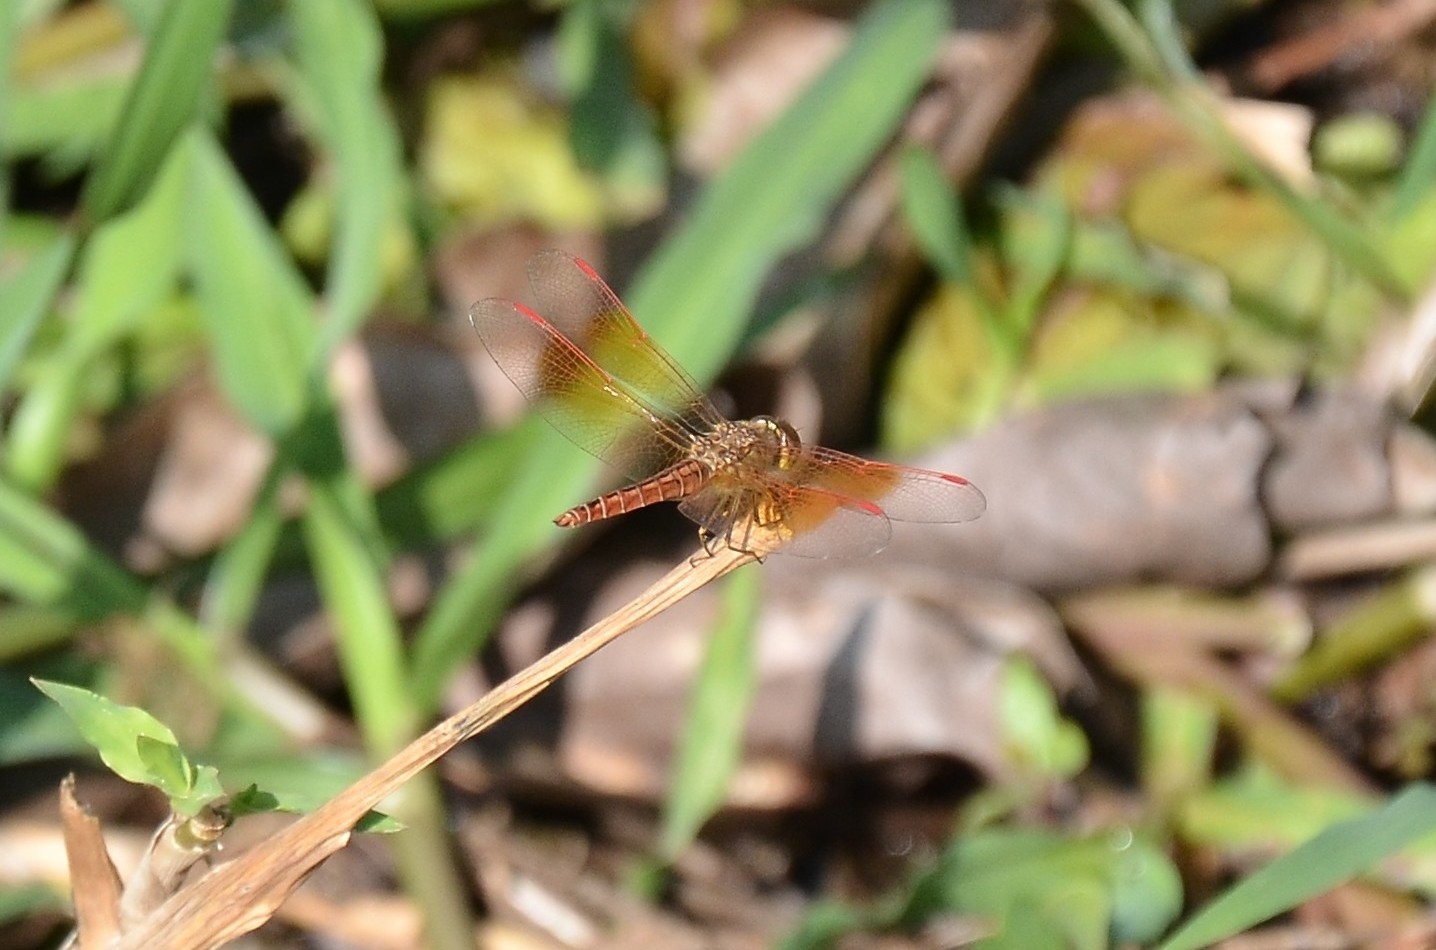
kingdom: Animalia
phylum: Arthropoda
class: Insecta
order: Odonata
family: Libellulidae
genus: Brachythemis
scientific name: Brachythemis contaminata
